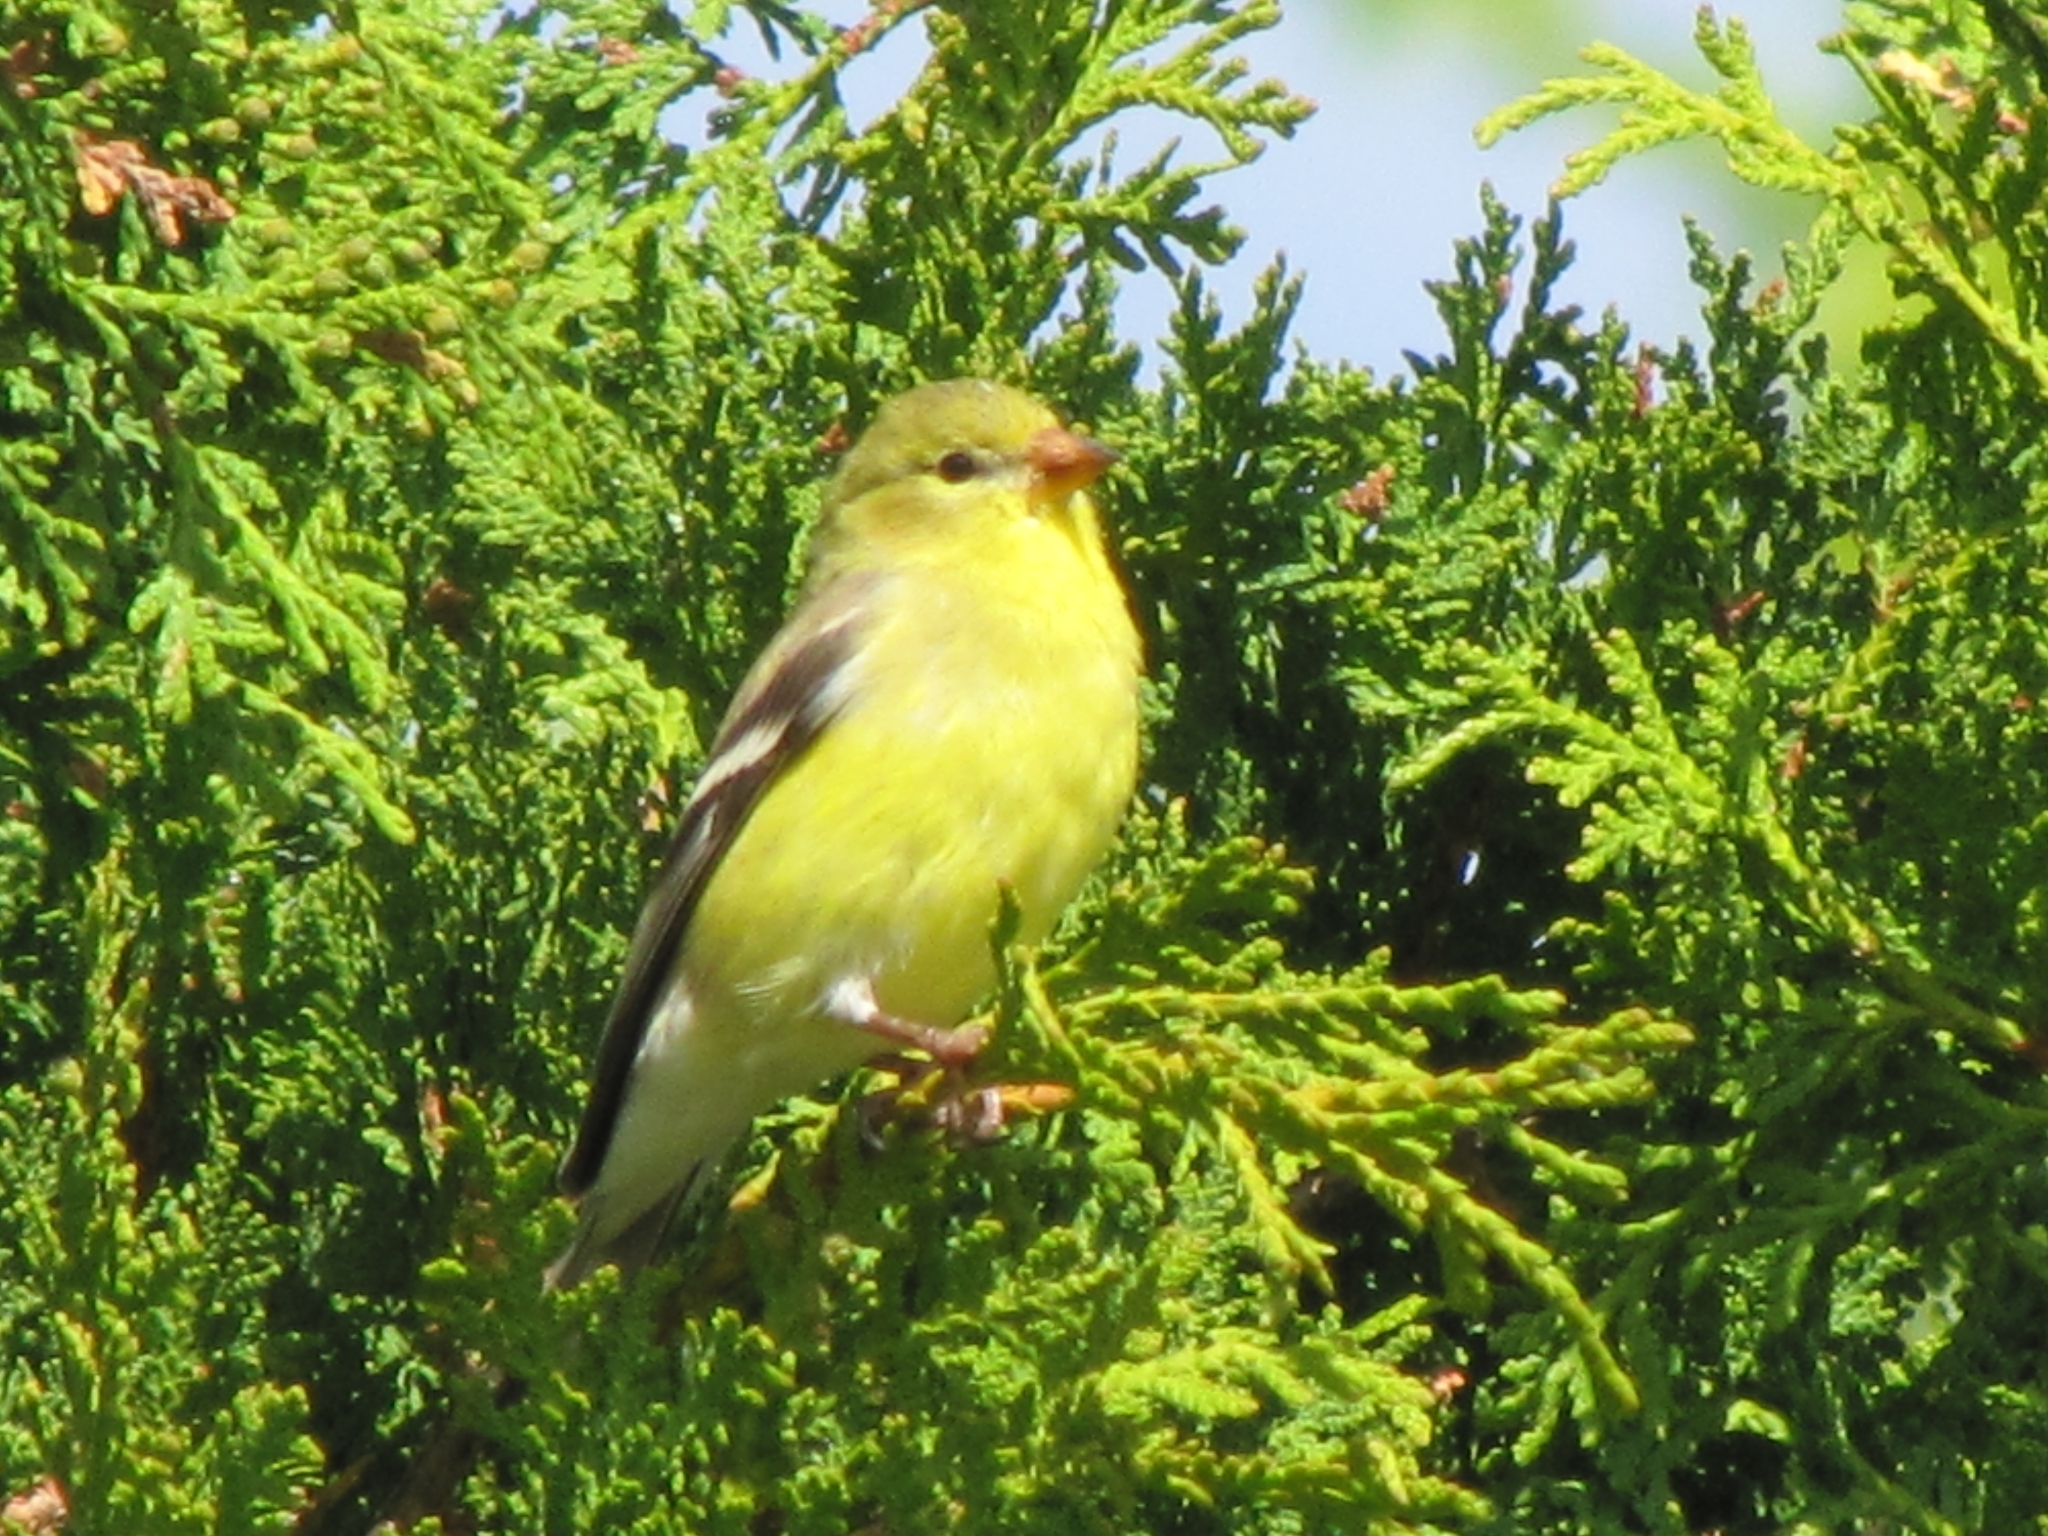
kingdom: Animalia
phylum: Chordata
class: Aves
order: Passeriformes
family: Fringillidae
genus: Spinus
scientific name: Spinus tristis
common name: American goldfinch
